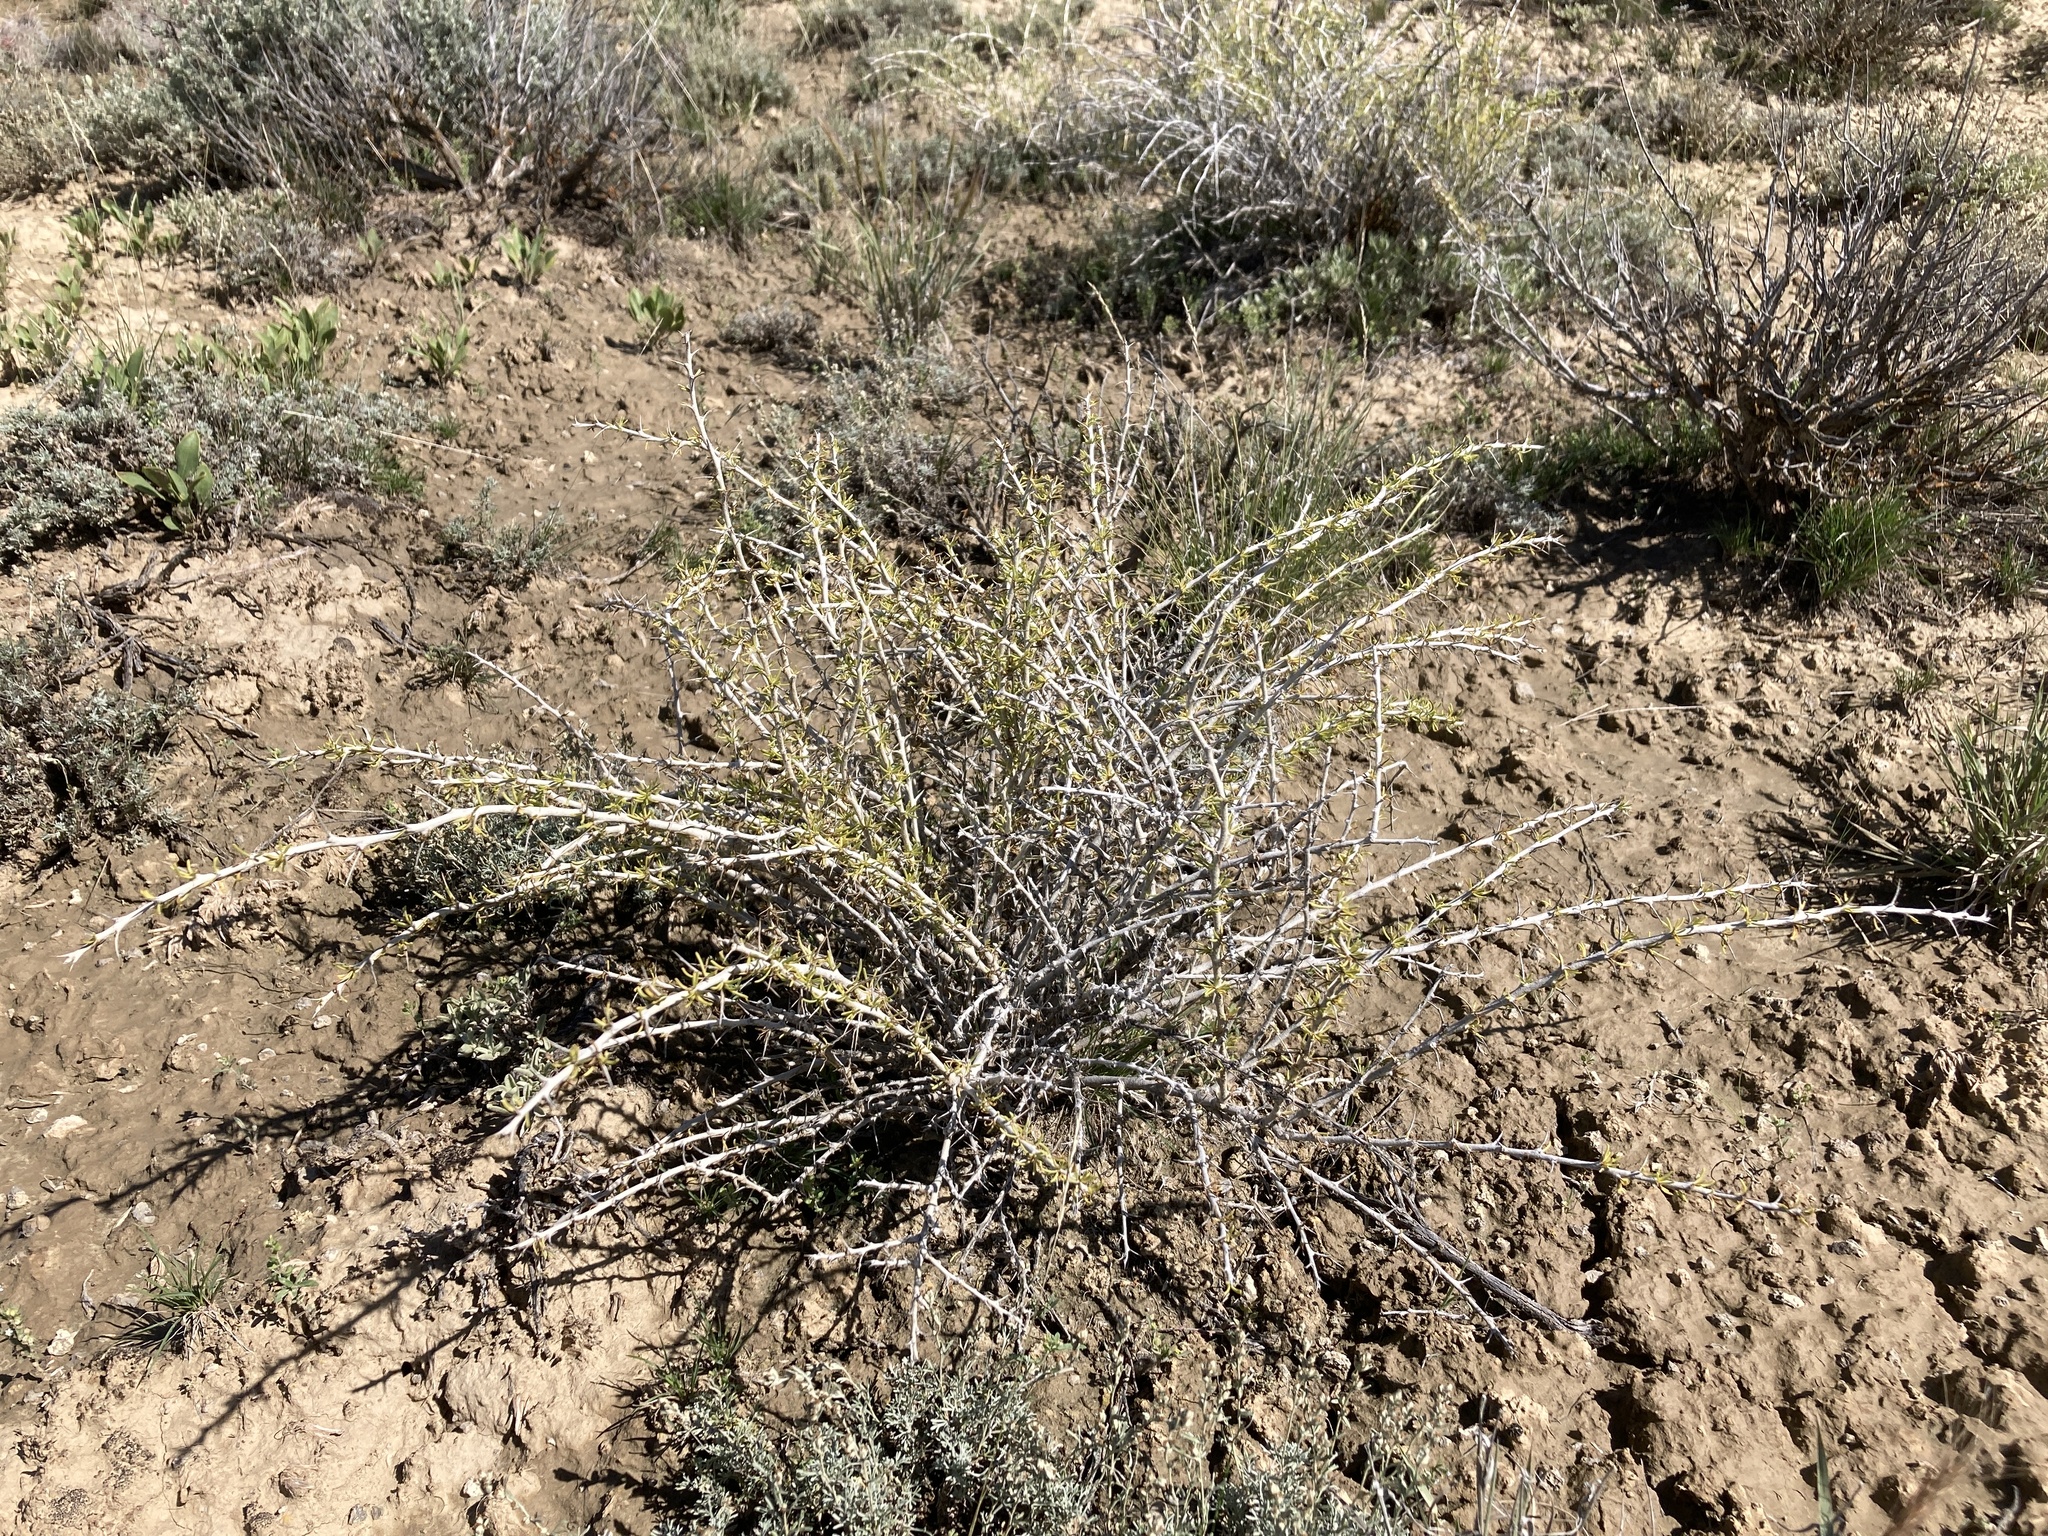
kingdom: Plantae
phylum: Tracheophyta
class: Magnoliopsida
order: Asterales
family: Asteraceae
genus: Tetradymia
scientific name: Tetradymia spinosa
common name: Thorny horsebrush
